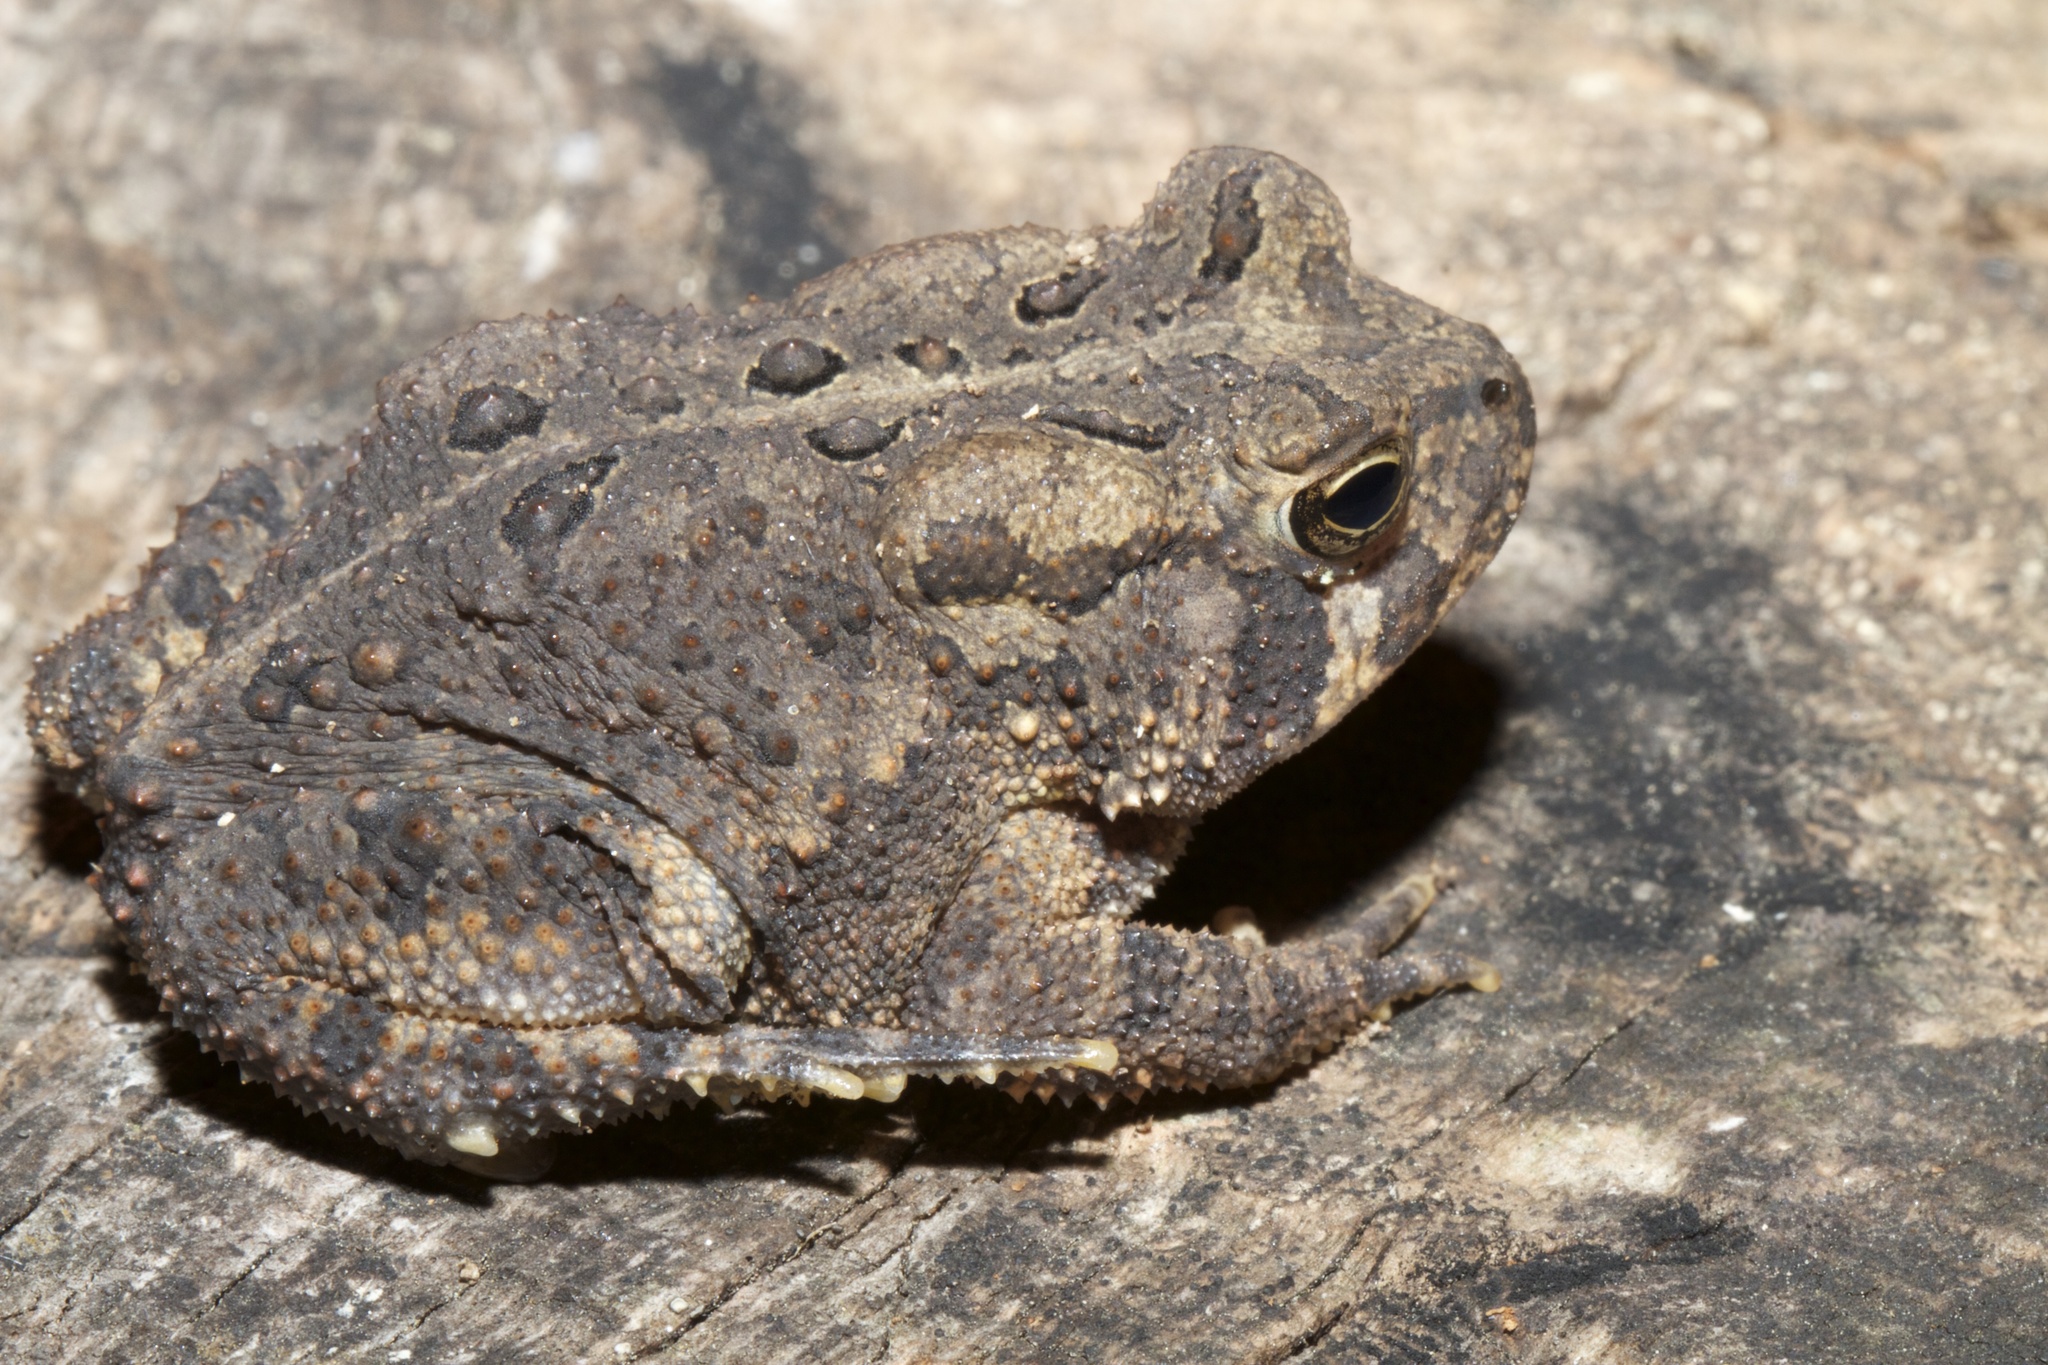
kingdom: Animalia
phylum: Chordata
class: Amphibia
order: Anura
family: Bufonidae
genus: Anaxyrus
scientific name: Anaxyrus americanus
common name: American toad
